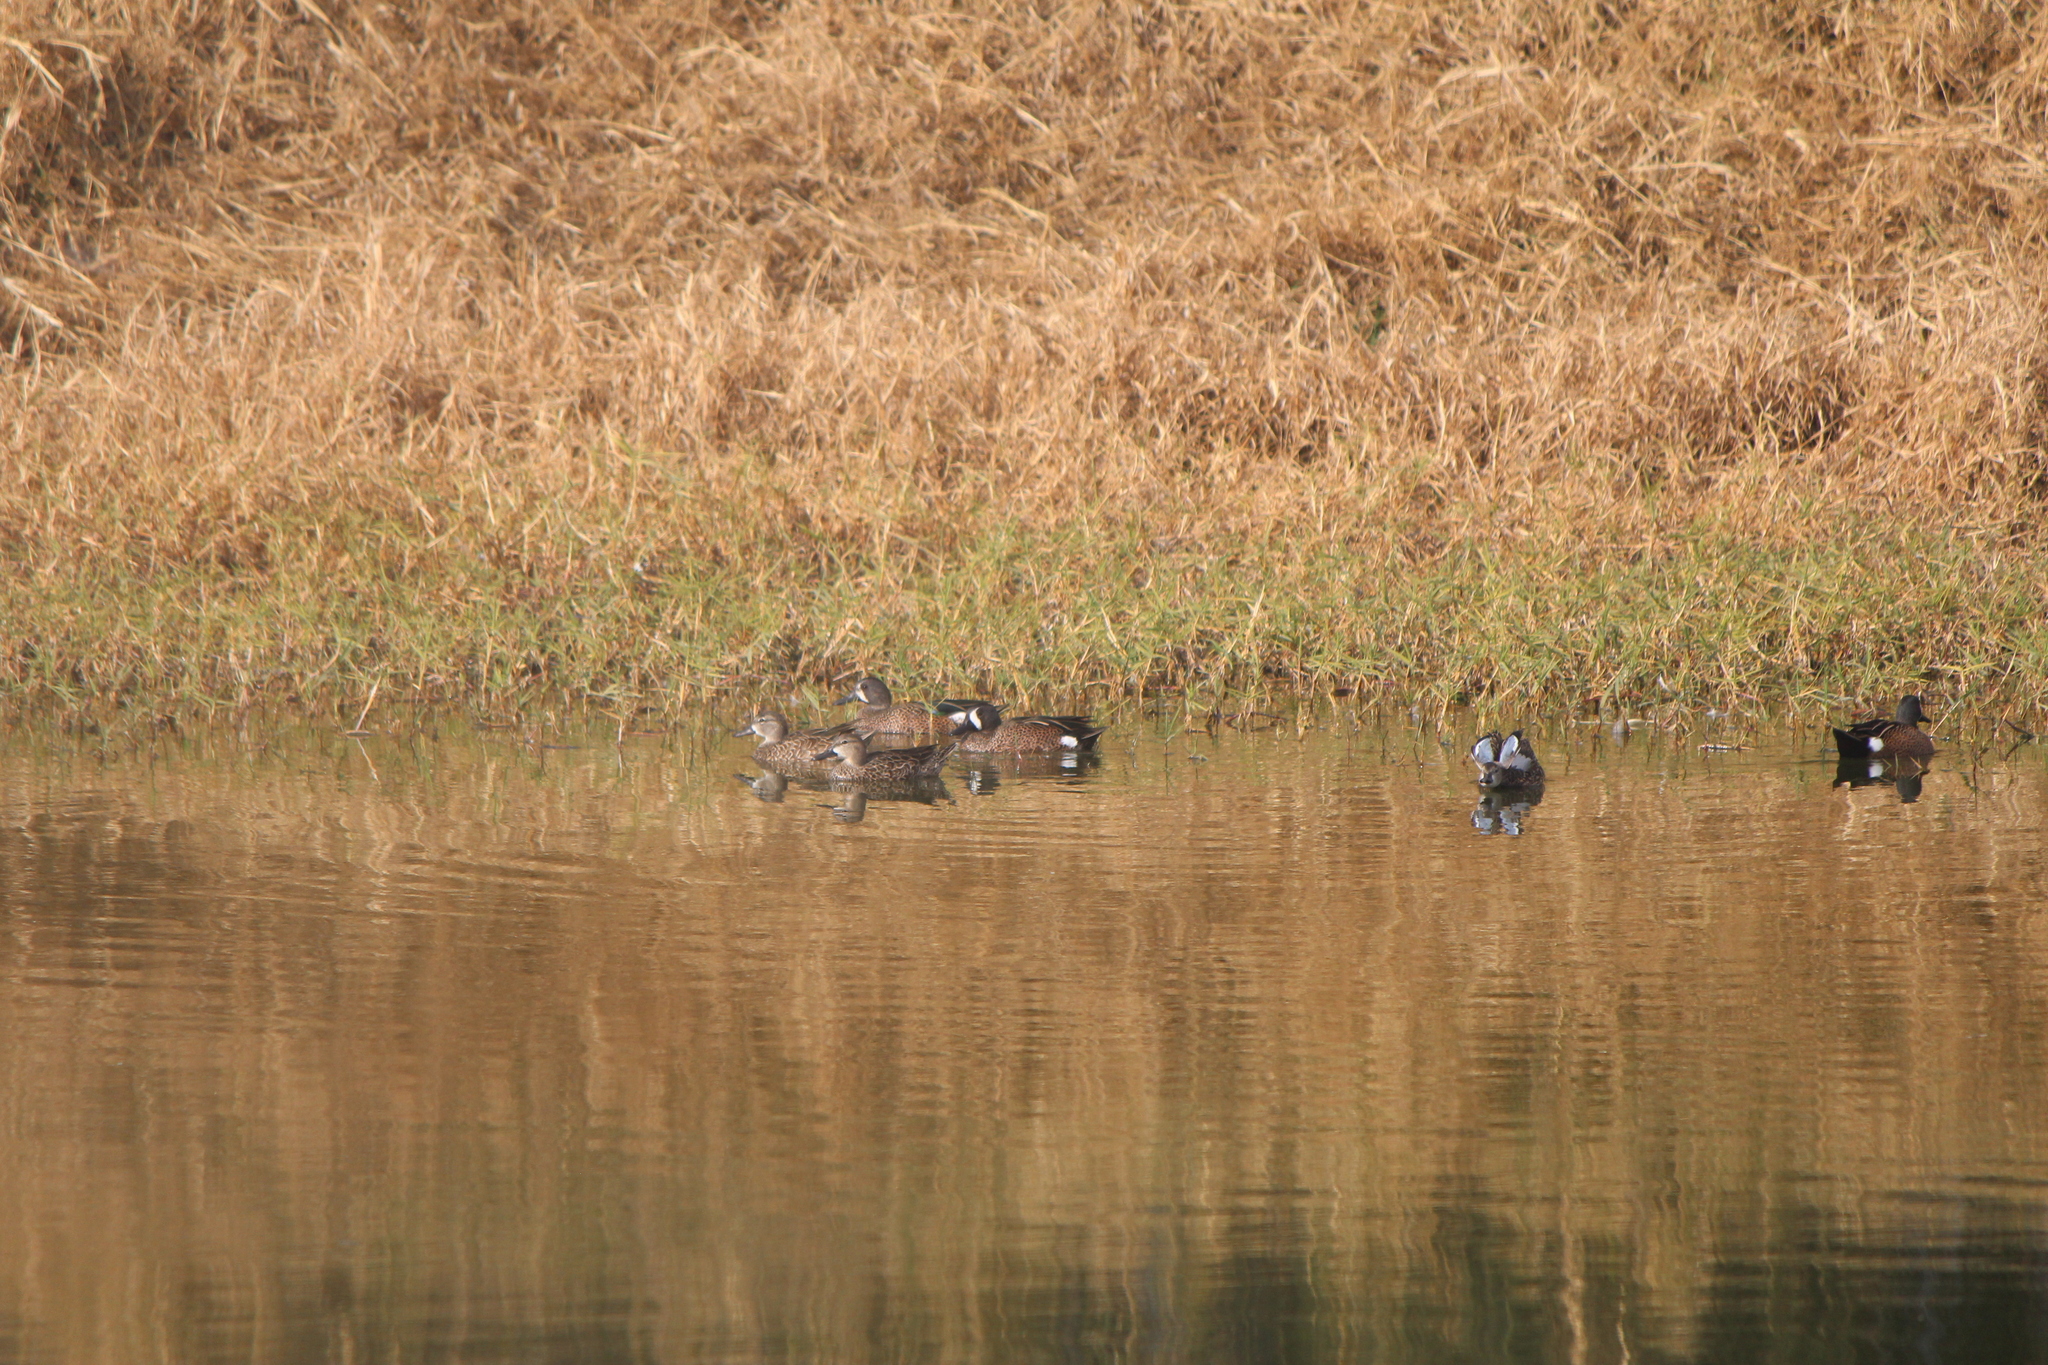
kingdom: Animalia
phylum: Chordata
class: Aves
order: Anseriformes
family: Anatidae
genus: Spatula
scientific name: Spatula discors
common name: Blue-winged teal
